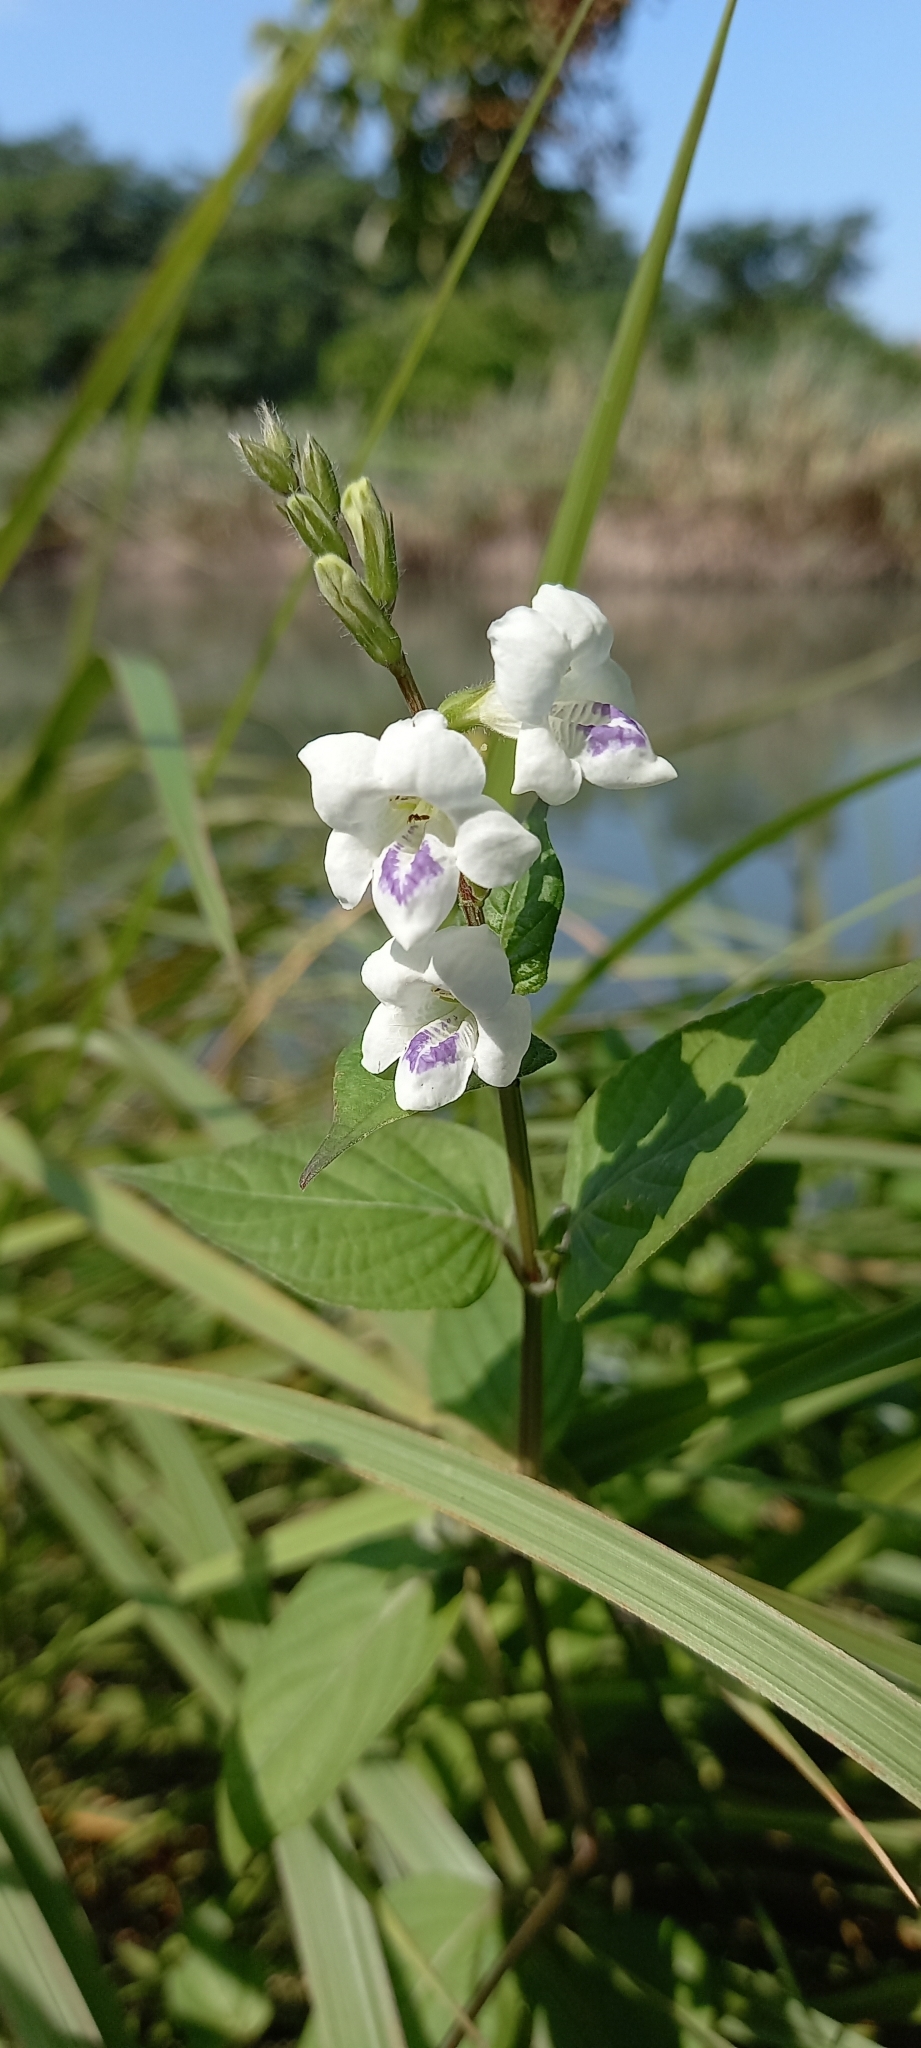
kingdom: Plantae
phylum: Tracheophyta
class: Magnoliopsida
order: Lamiales
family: Acanthaceae
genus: Asystasia
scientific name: Asystasia intrusa
